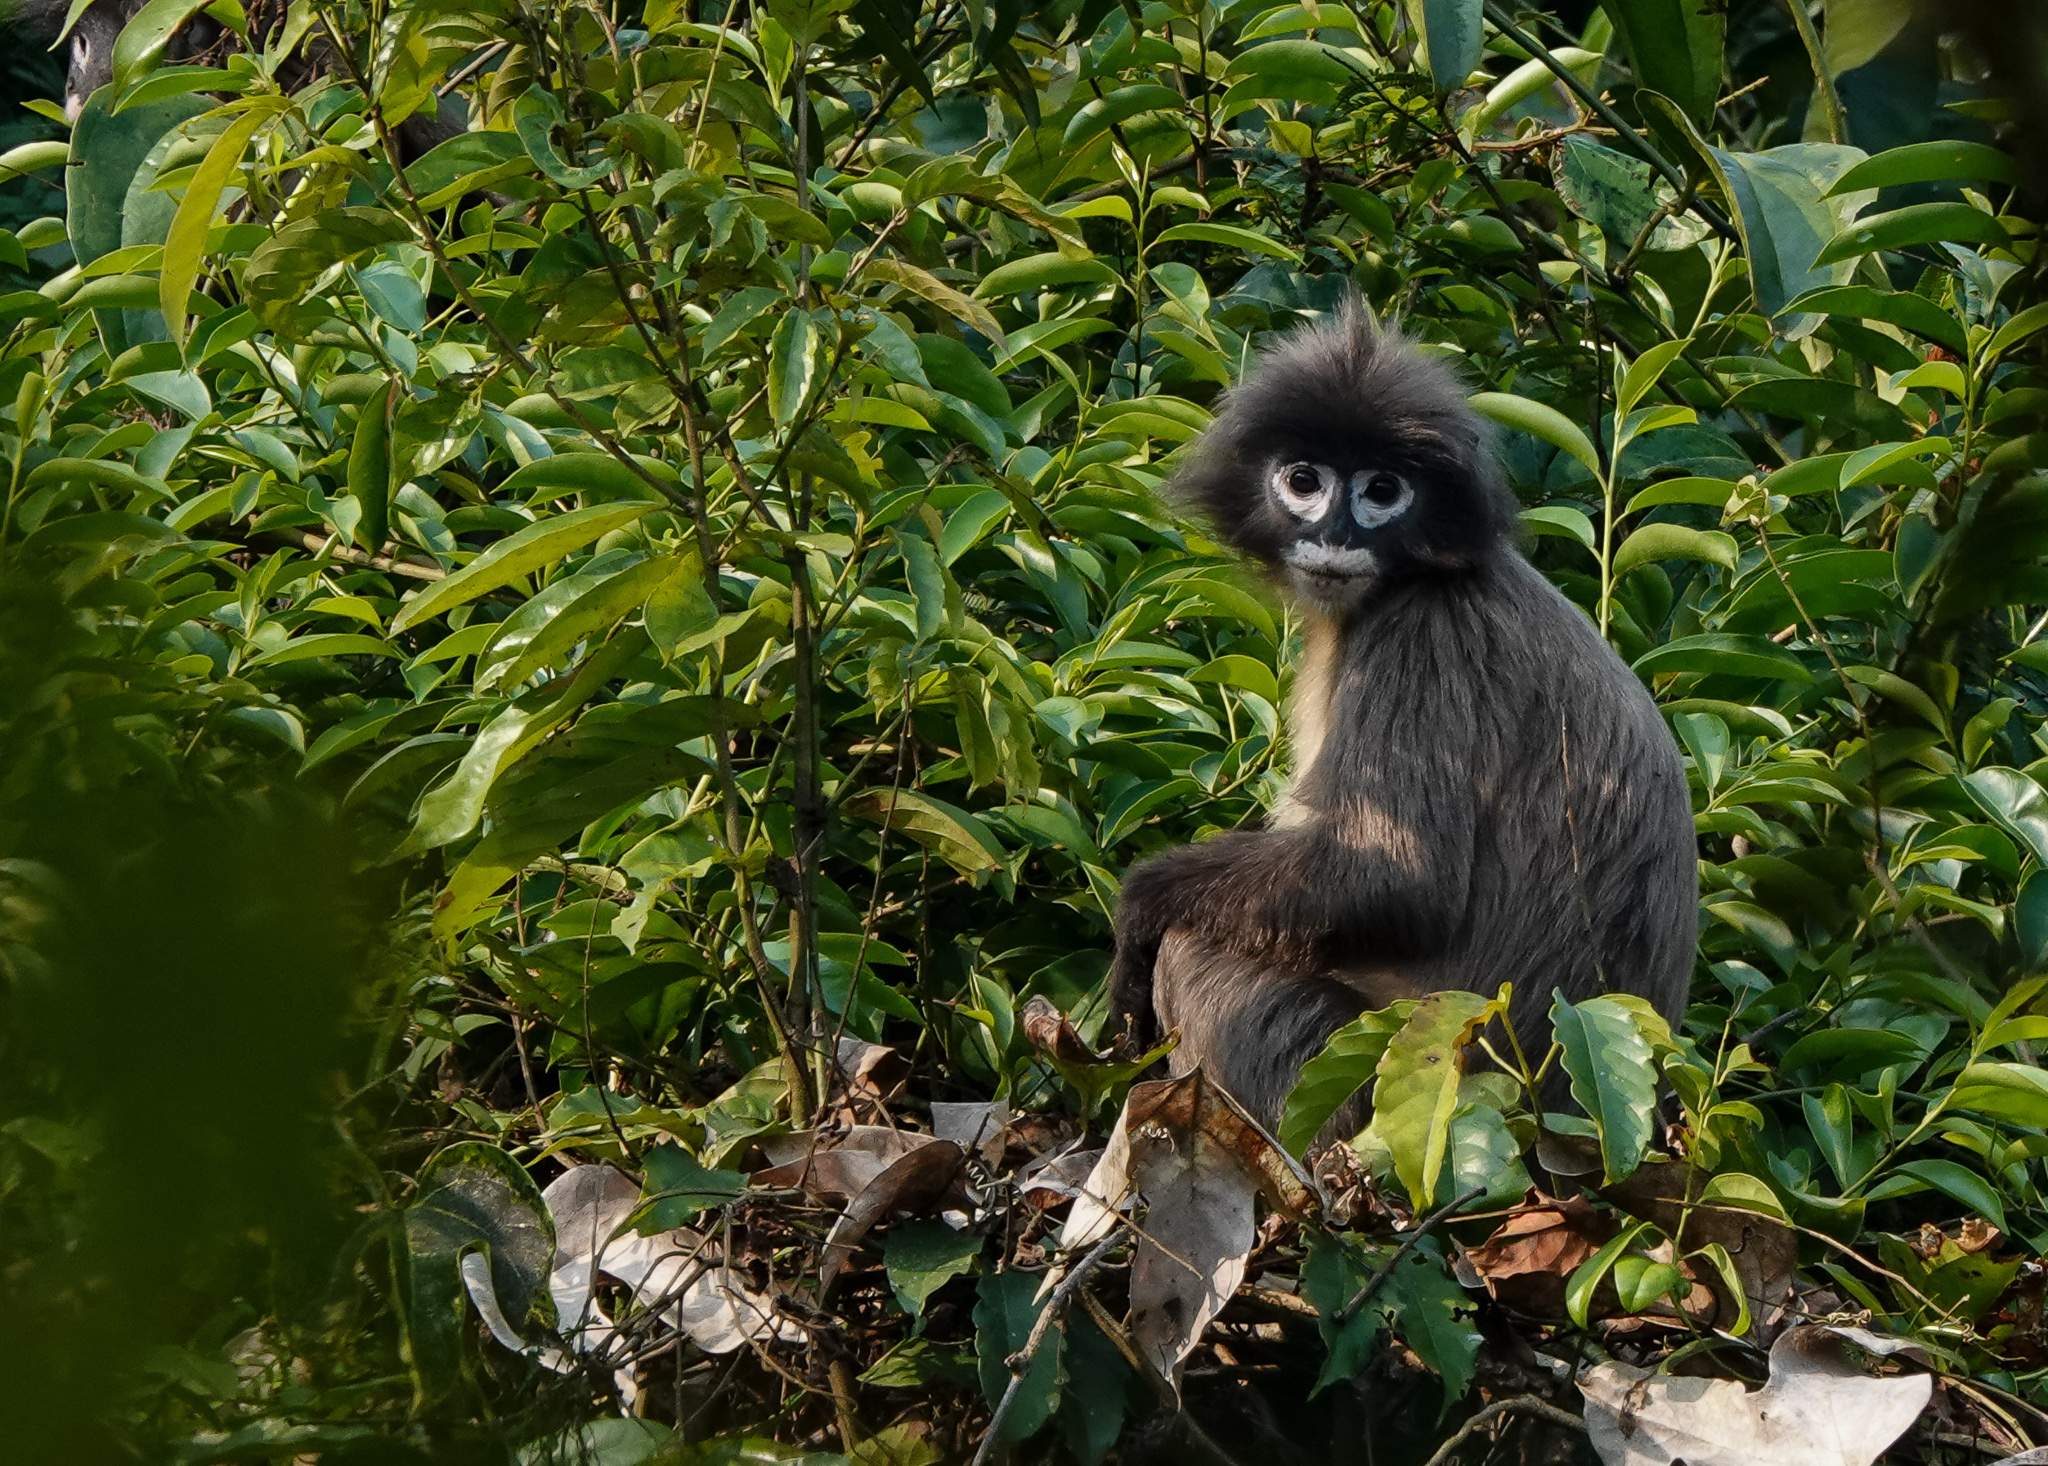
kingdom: Animalia
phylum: Chordata
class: Mammalia
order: Primates
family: Cercopithecidae
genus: Trachypithecus
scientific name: Trachypithecus phayrei
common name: Phayre's leaf monkey
